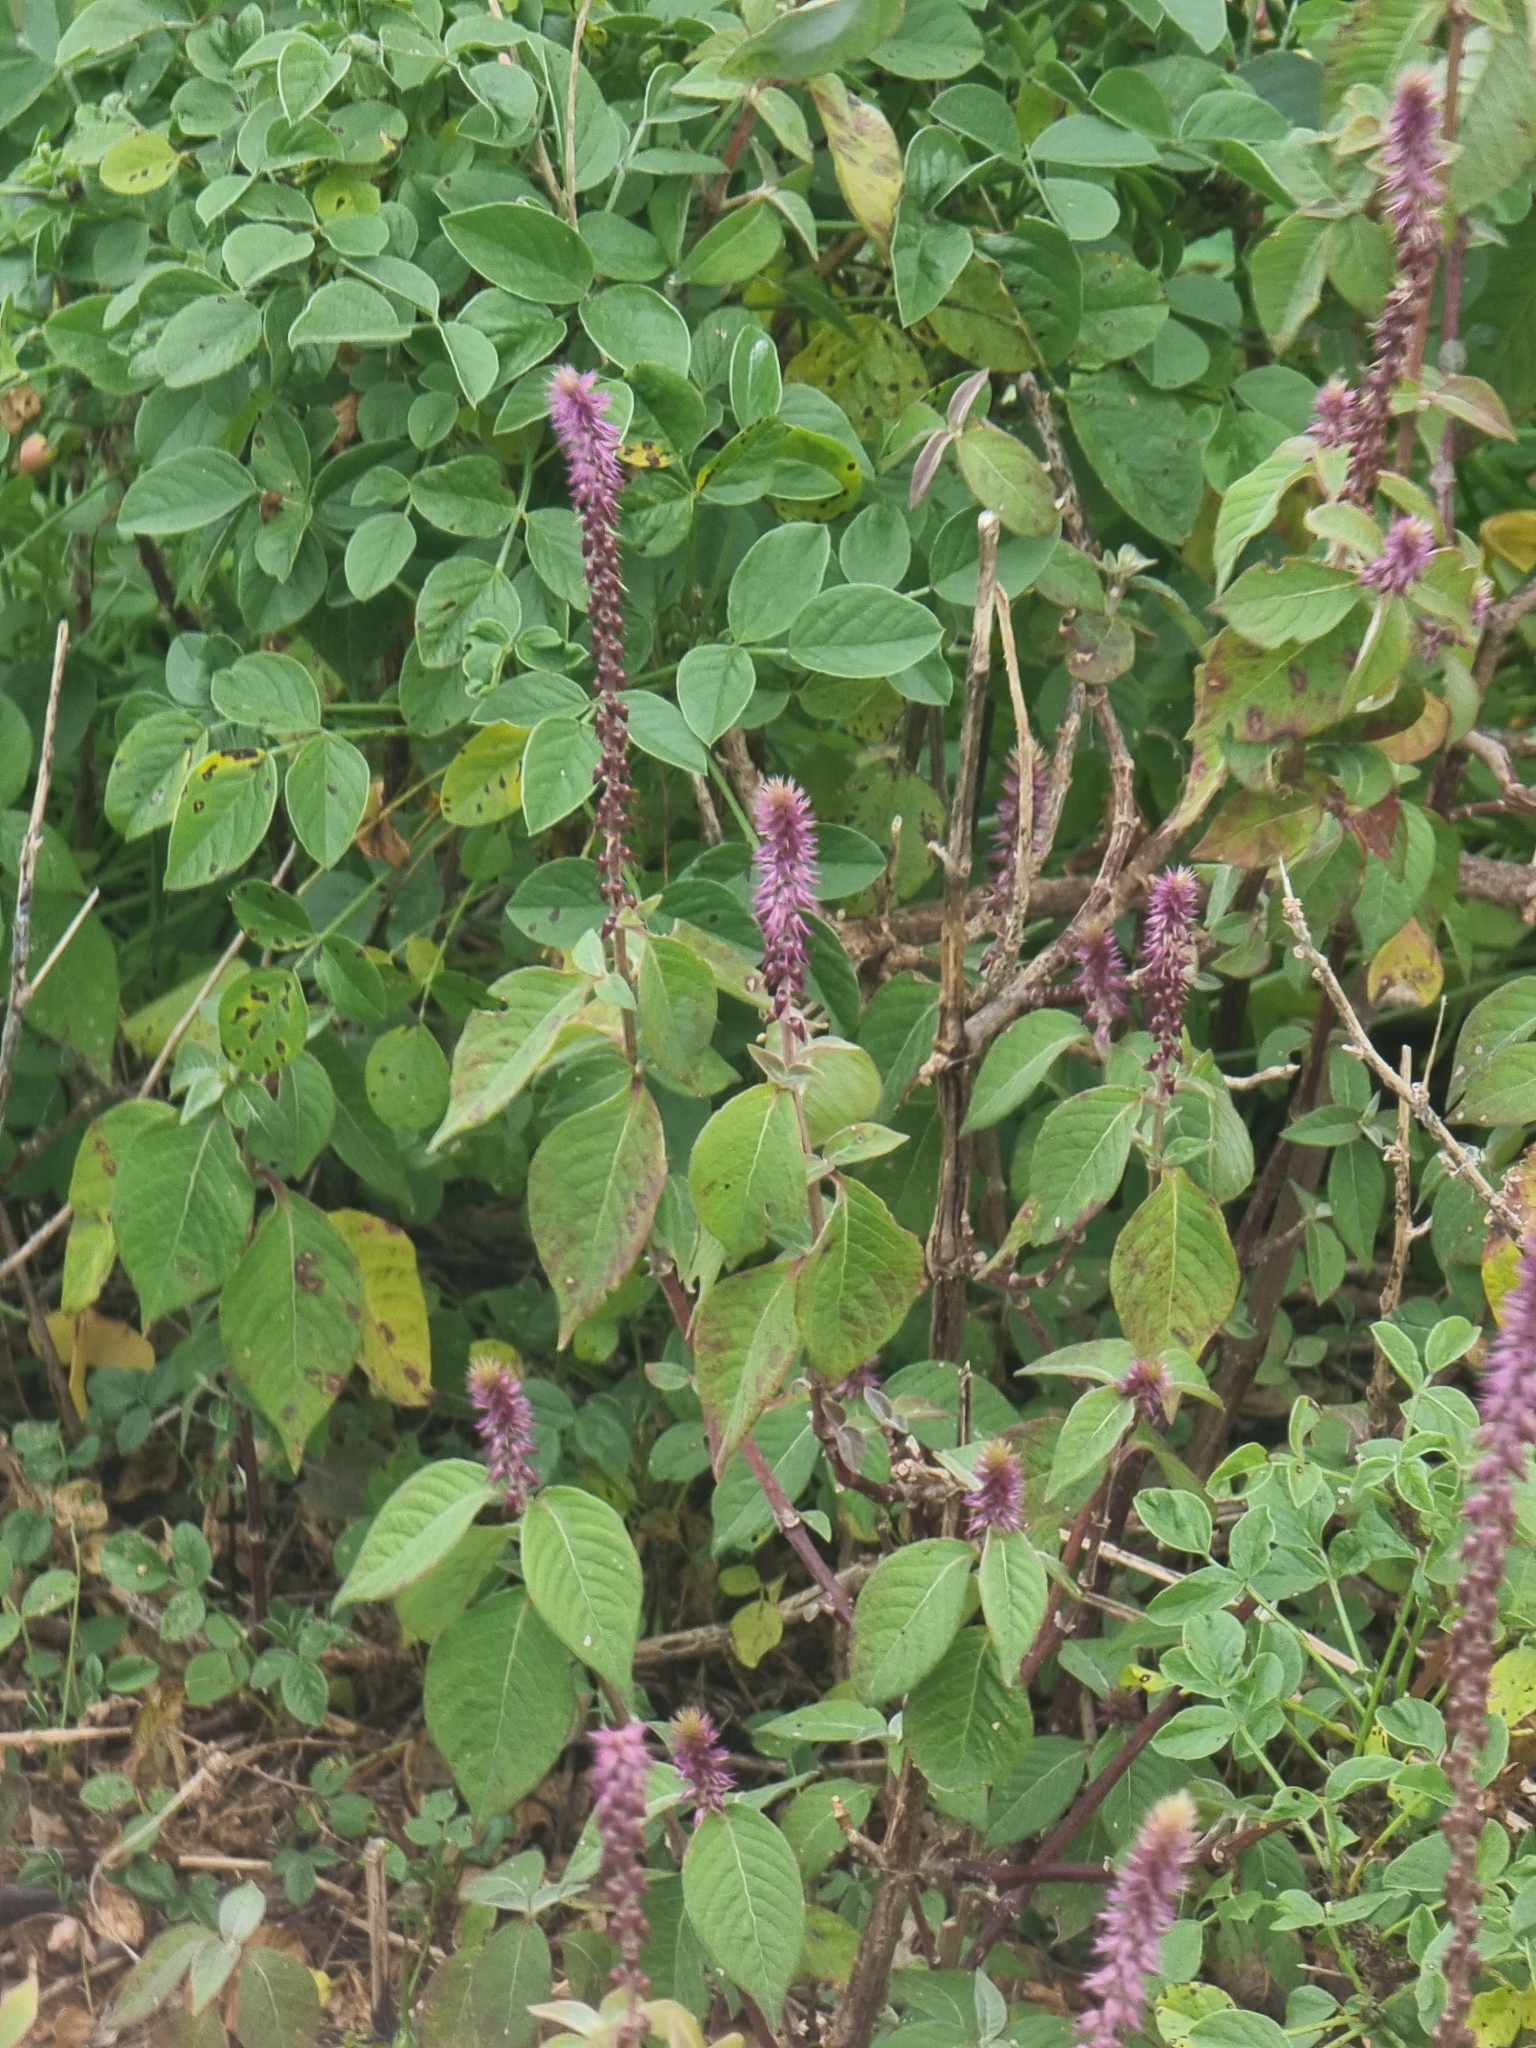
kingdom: Plantae
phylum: Tracheophyta
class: Magnoliopsida
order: Caryophyllales
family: Amaranthaceae
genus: Achyranthes
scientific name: Achyranthes aspera
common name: Devil's horsewhip
